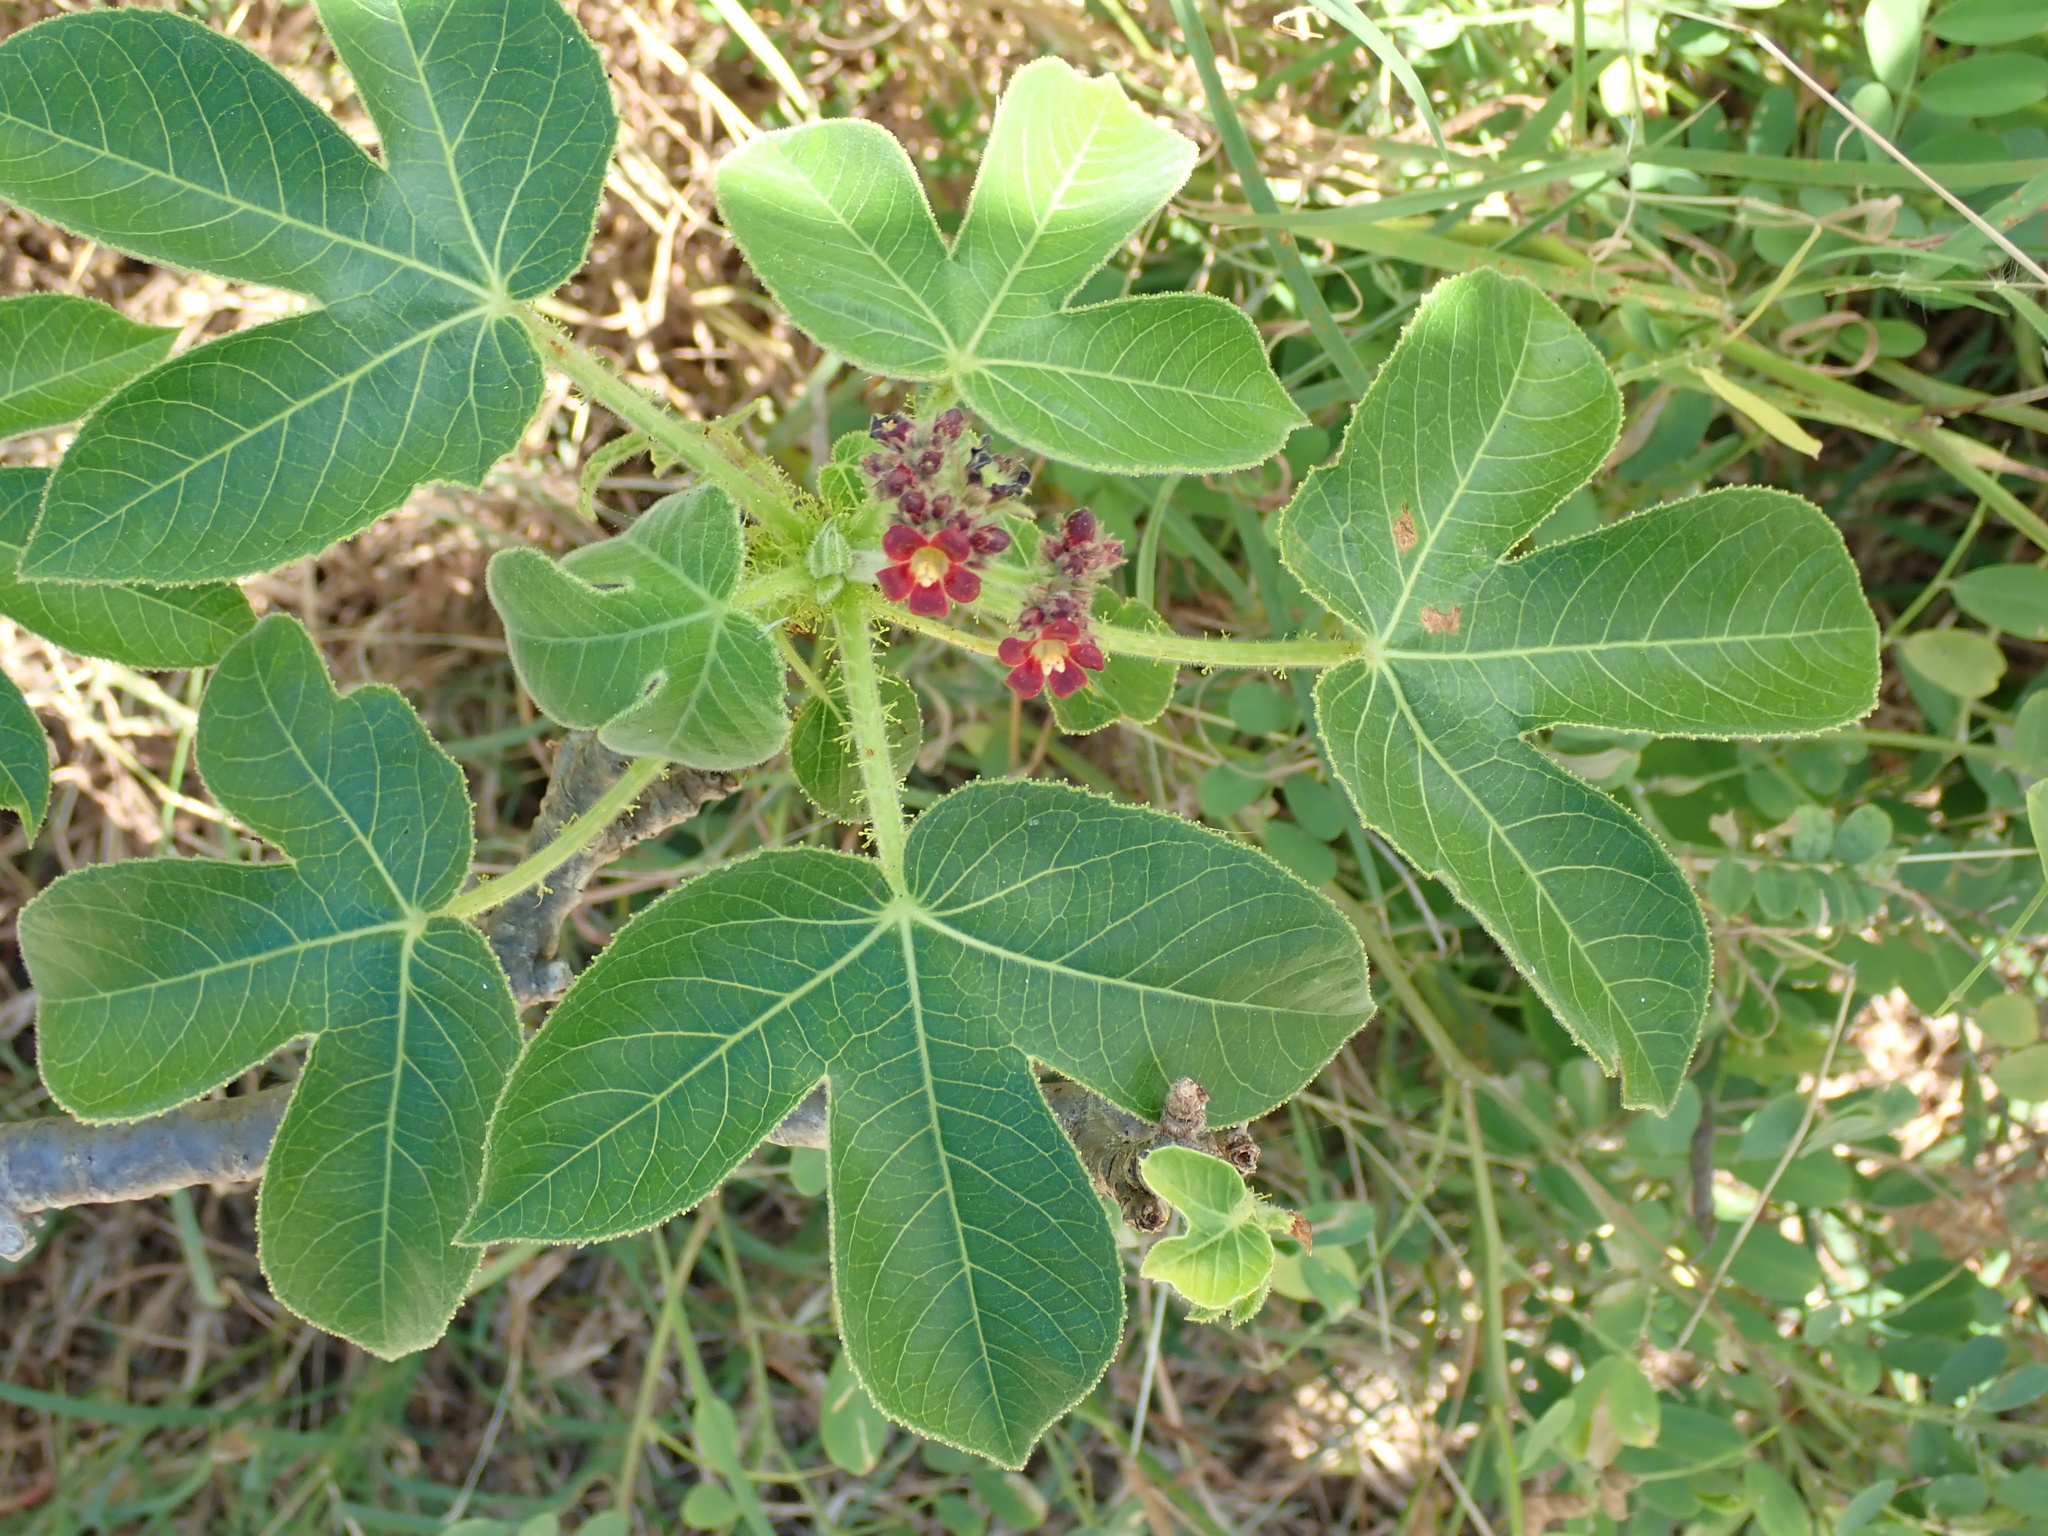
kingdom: Plantae
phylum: Tracheophyta
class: Magnoliopsida
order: Malpighiales
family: Euphorbiaceae
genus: Jatropha
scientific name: Jatropha gossypiifolia
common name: Bellyache bush
